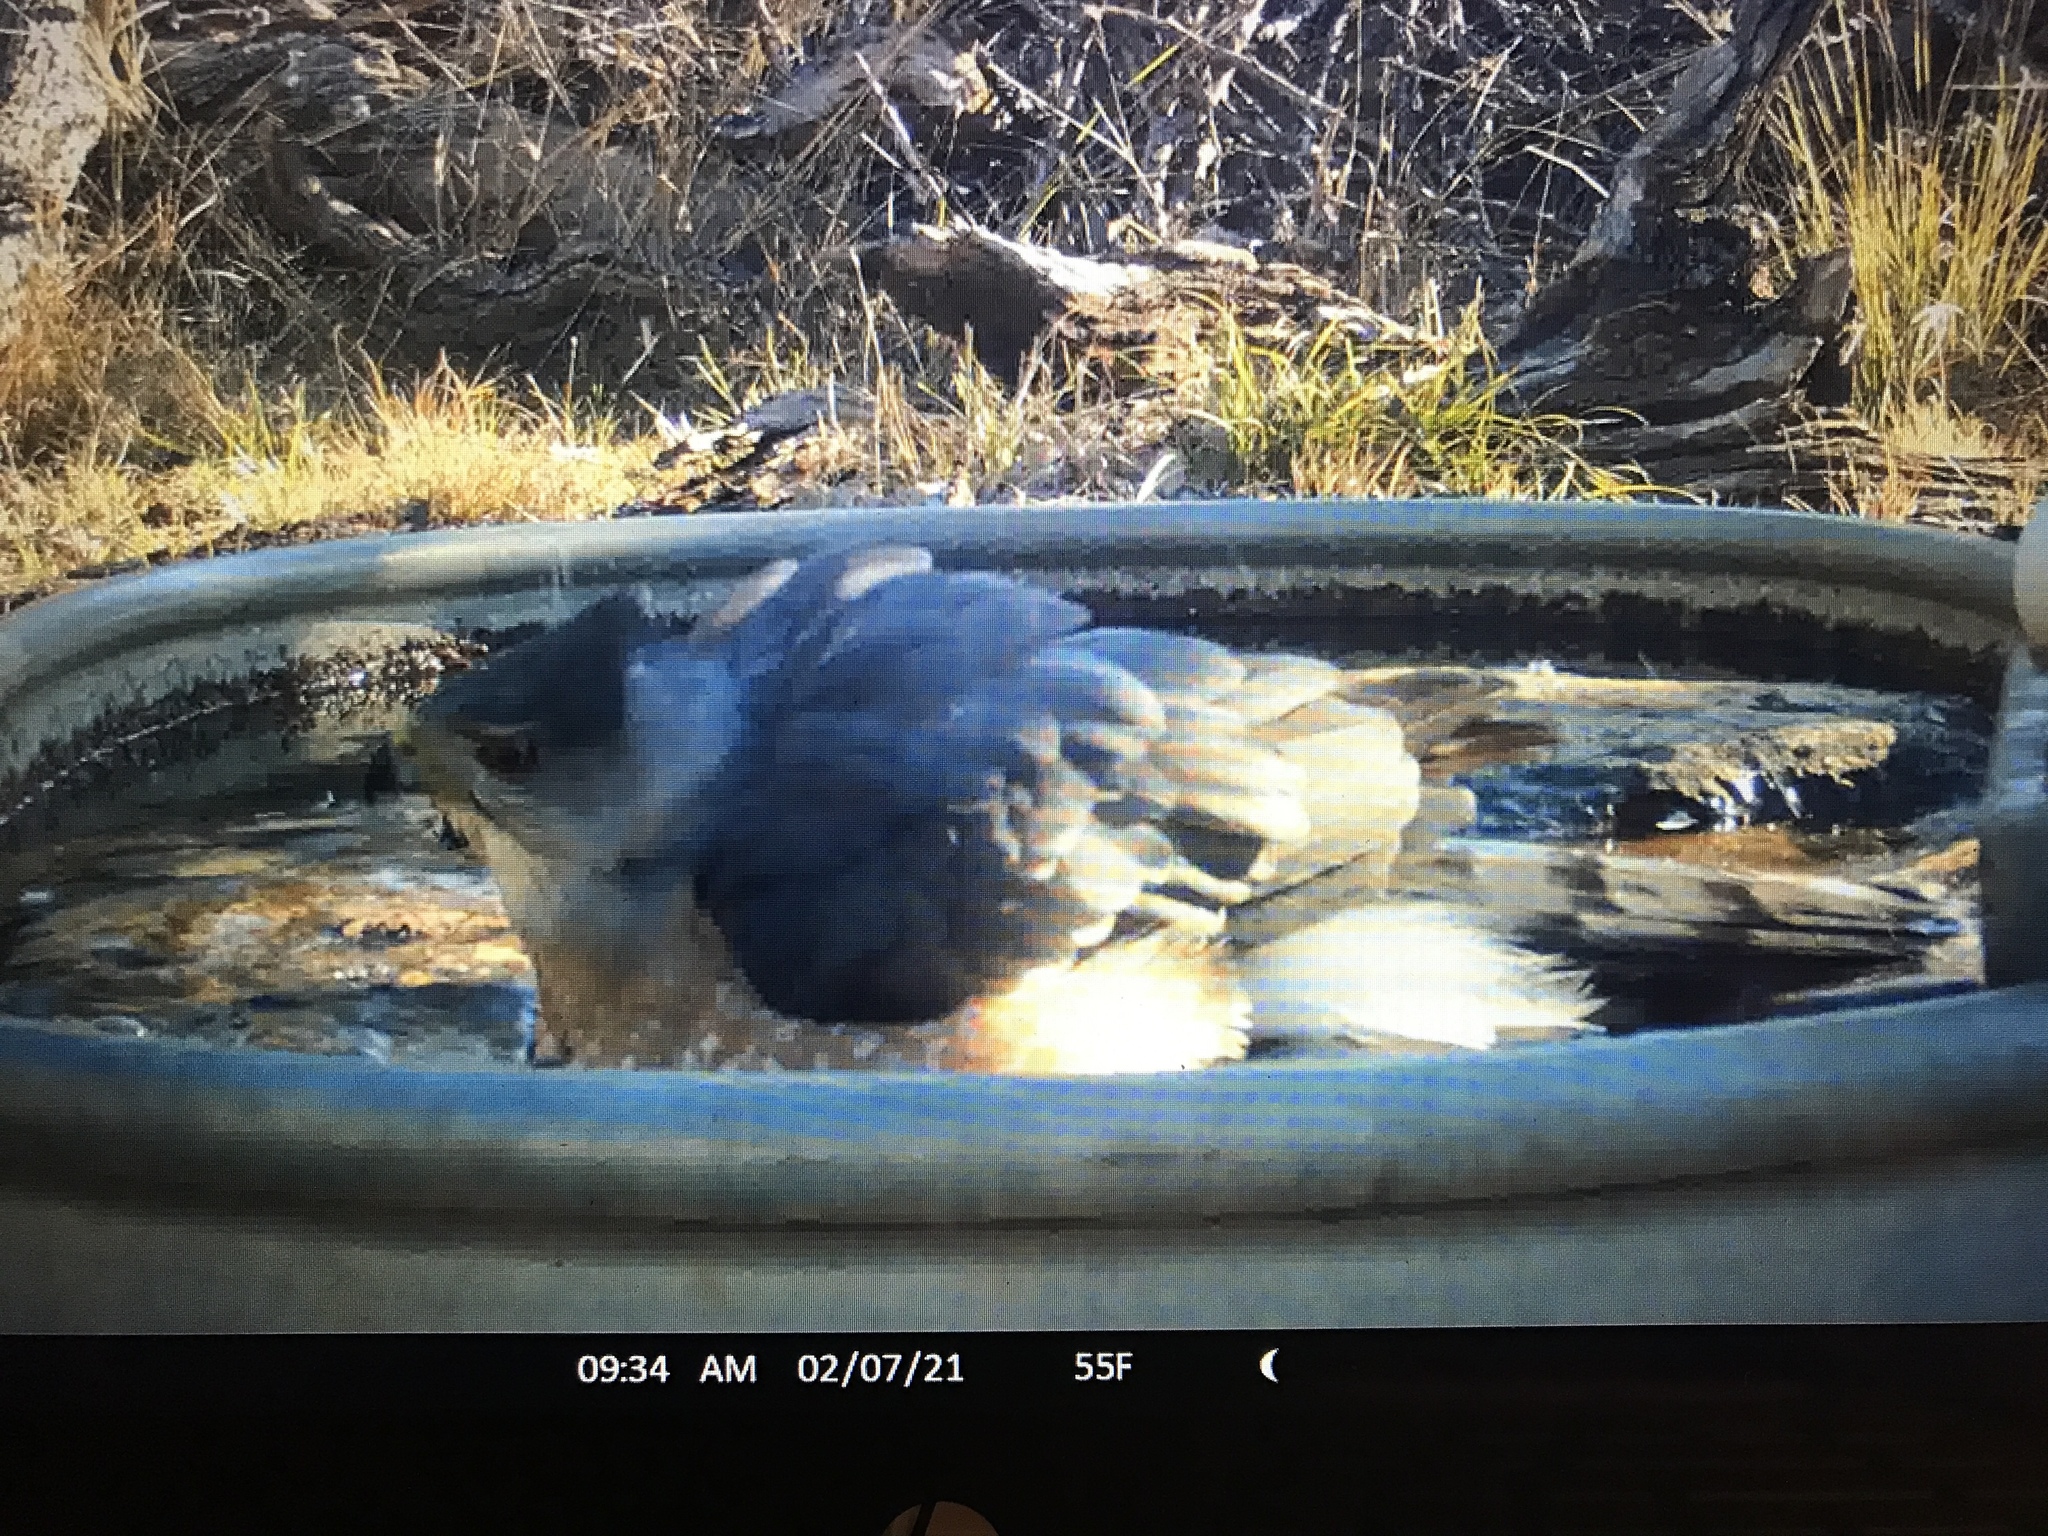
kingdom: Animalia
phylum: Chordata
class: Aves
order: Accipitriformes
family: Accipitridae
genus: Accipiter
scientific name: Accipiter cooperii
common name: Cooper's hawk
